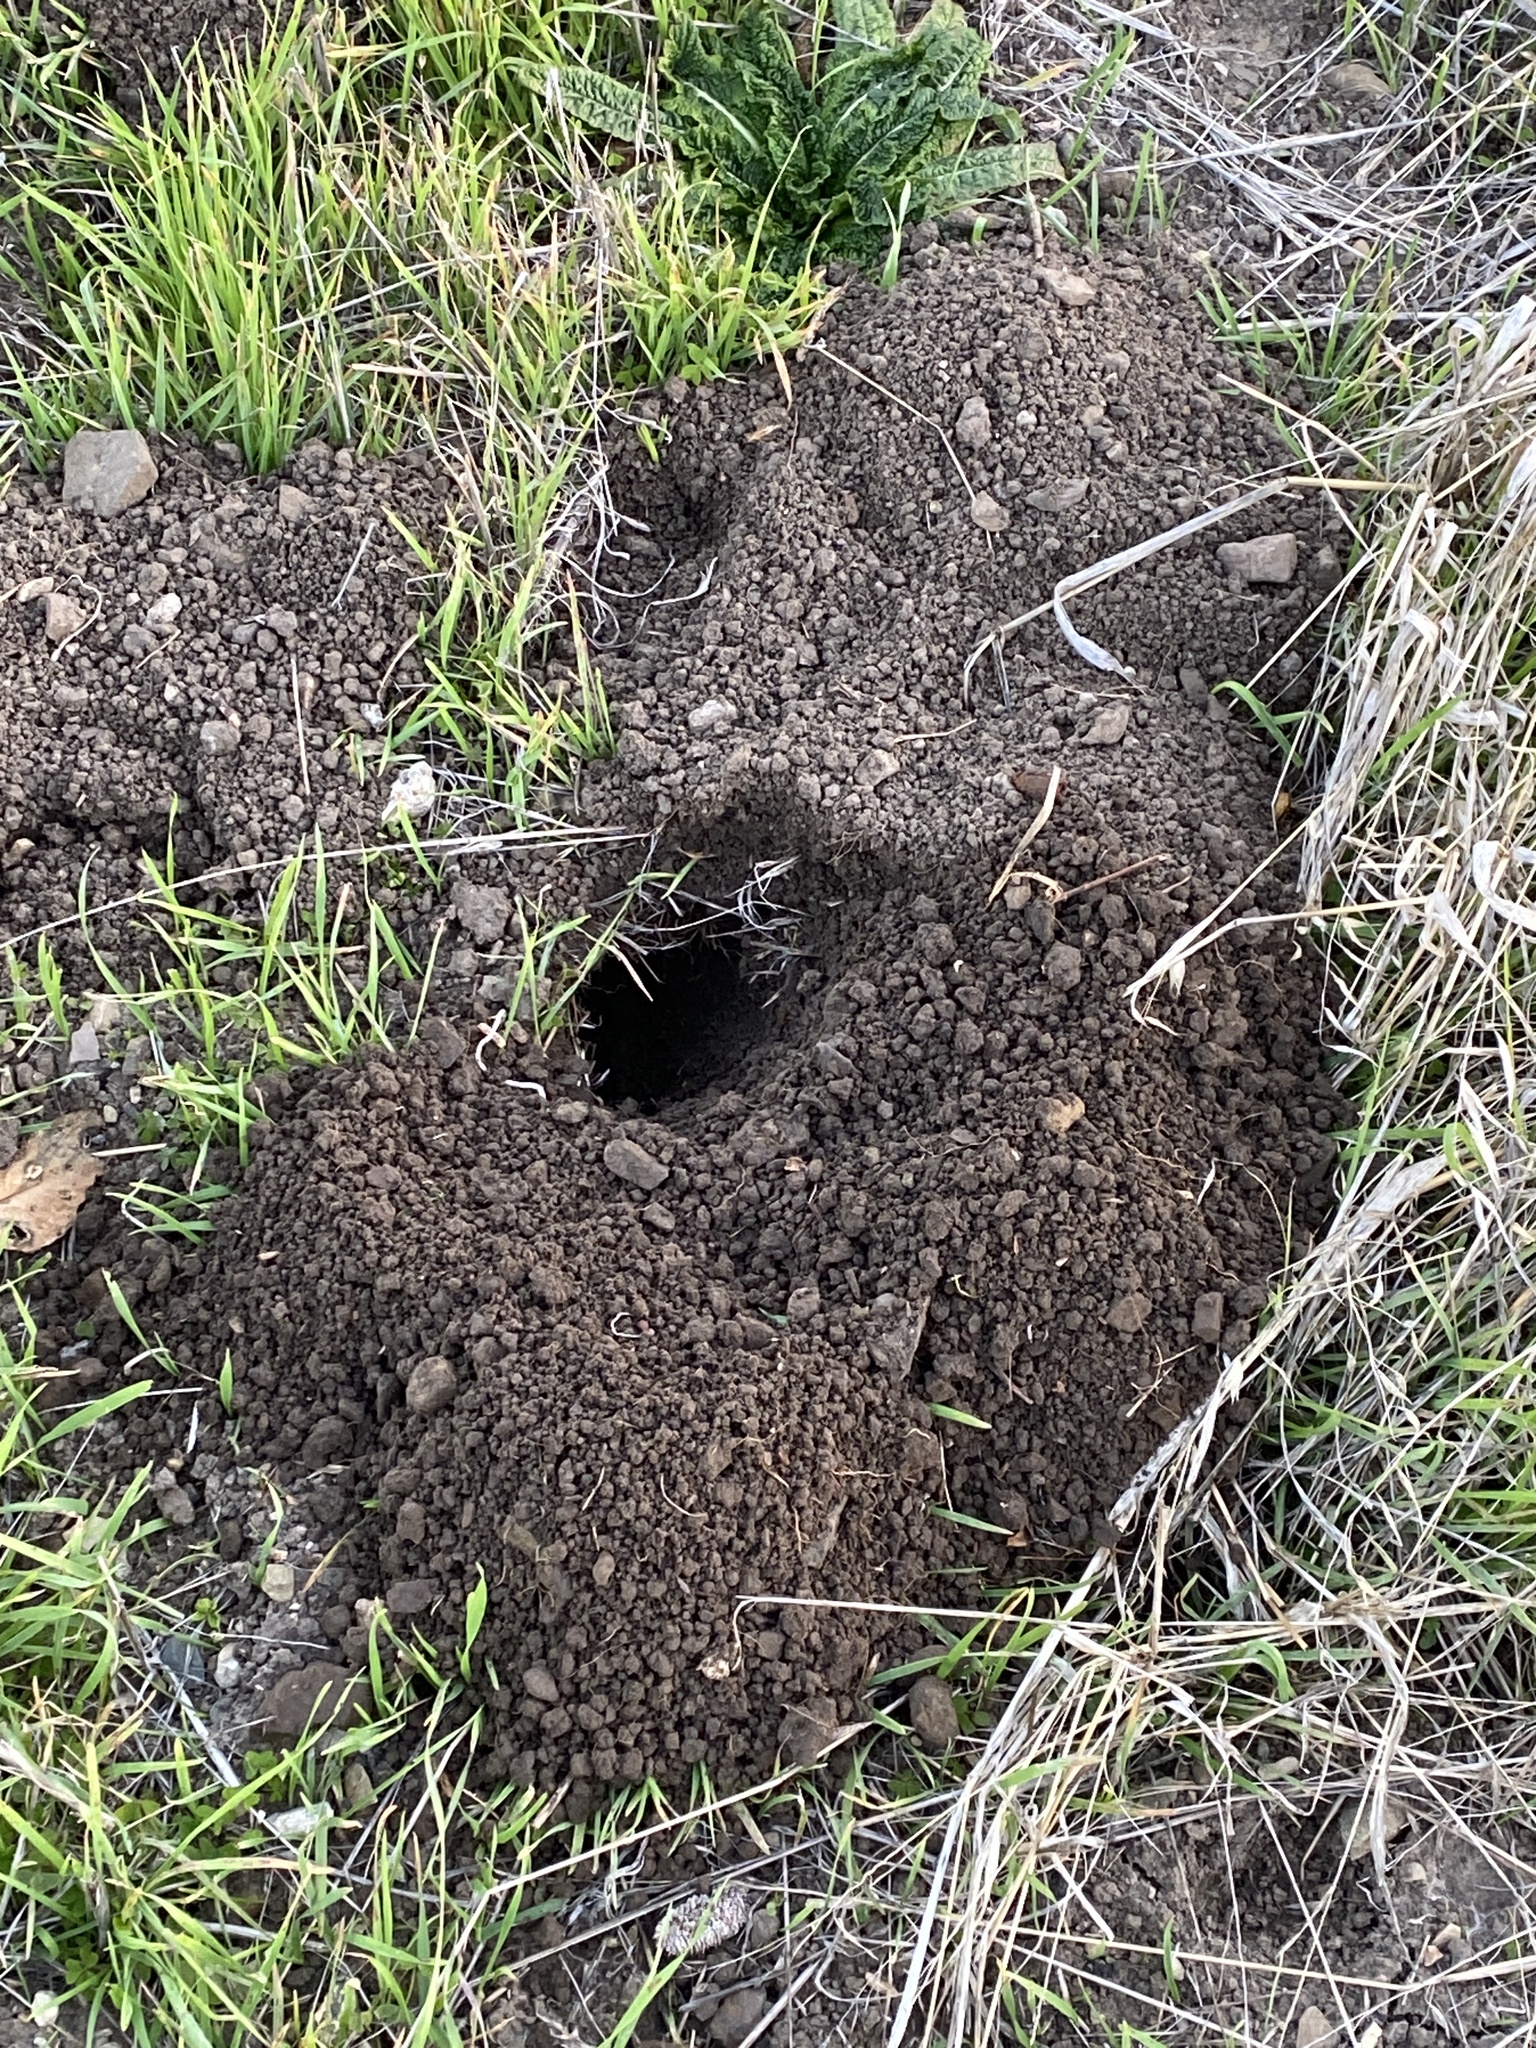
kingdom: Animalia
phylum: Chordata
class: Mammalia
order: Rodentia
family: Geomyidae
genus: Thomomys
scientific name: Thomomys bottae
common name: Botta's pocket gopher
